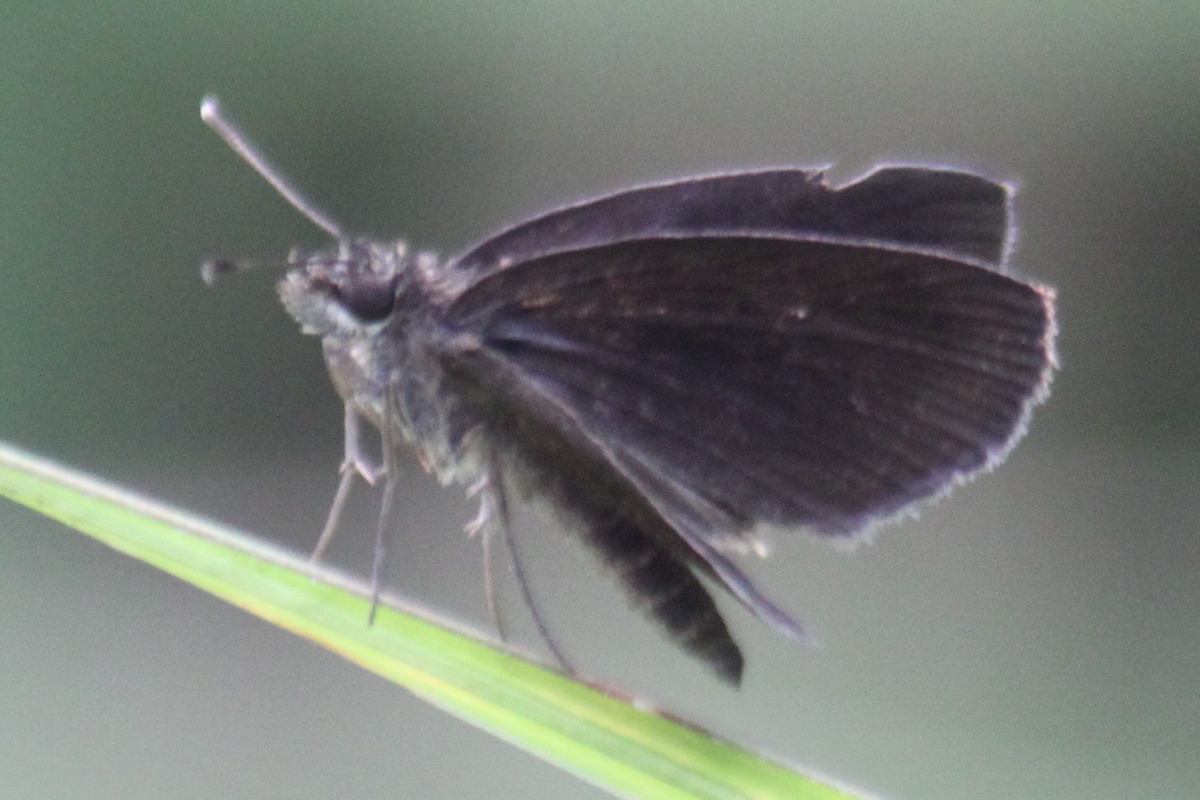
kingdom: Animalia
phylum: Arthropoda
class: Insecta
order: Lepidoptera
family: Hesperiidae
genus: Astictopterus
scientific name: Astictopterus jama
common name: Forest hopper
